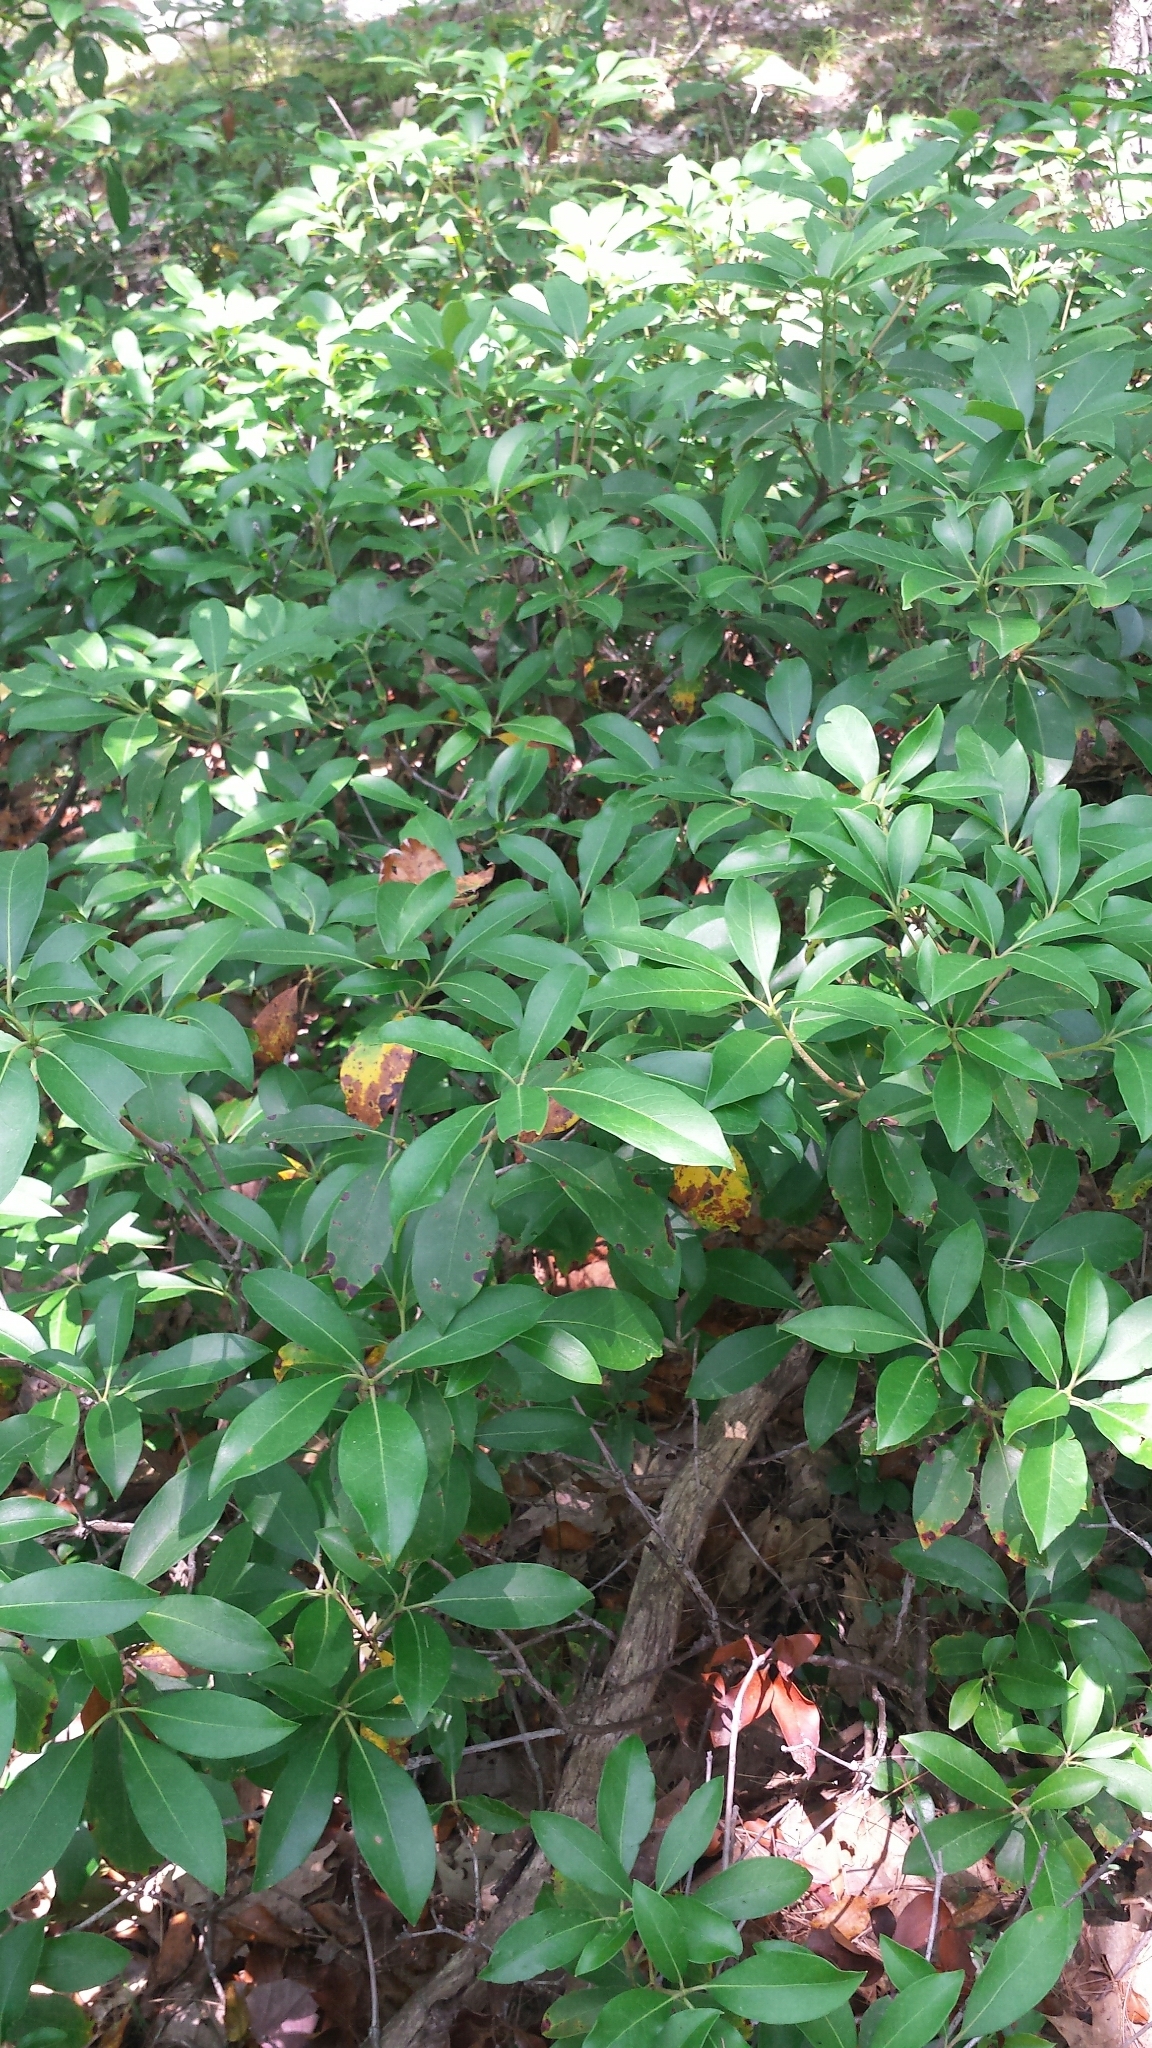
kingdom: Plantae
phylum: Tracheophyta
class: Magnoliopsida
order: Ericales
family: Ericaceae
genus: Kalmia
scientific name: Kalmia latifolia
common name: Mountain-laurel
